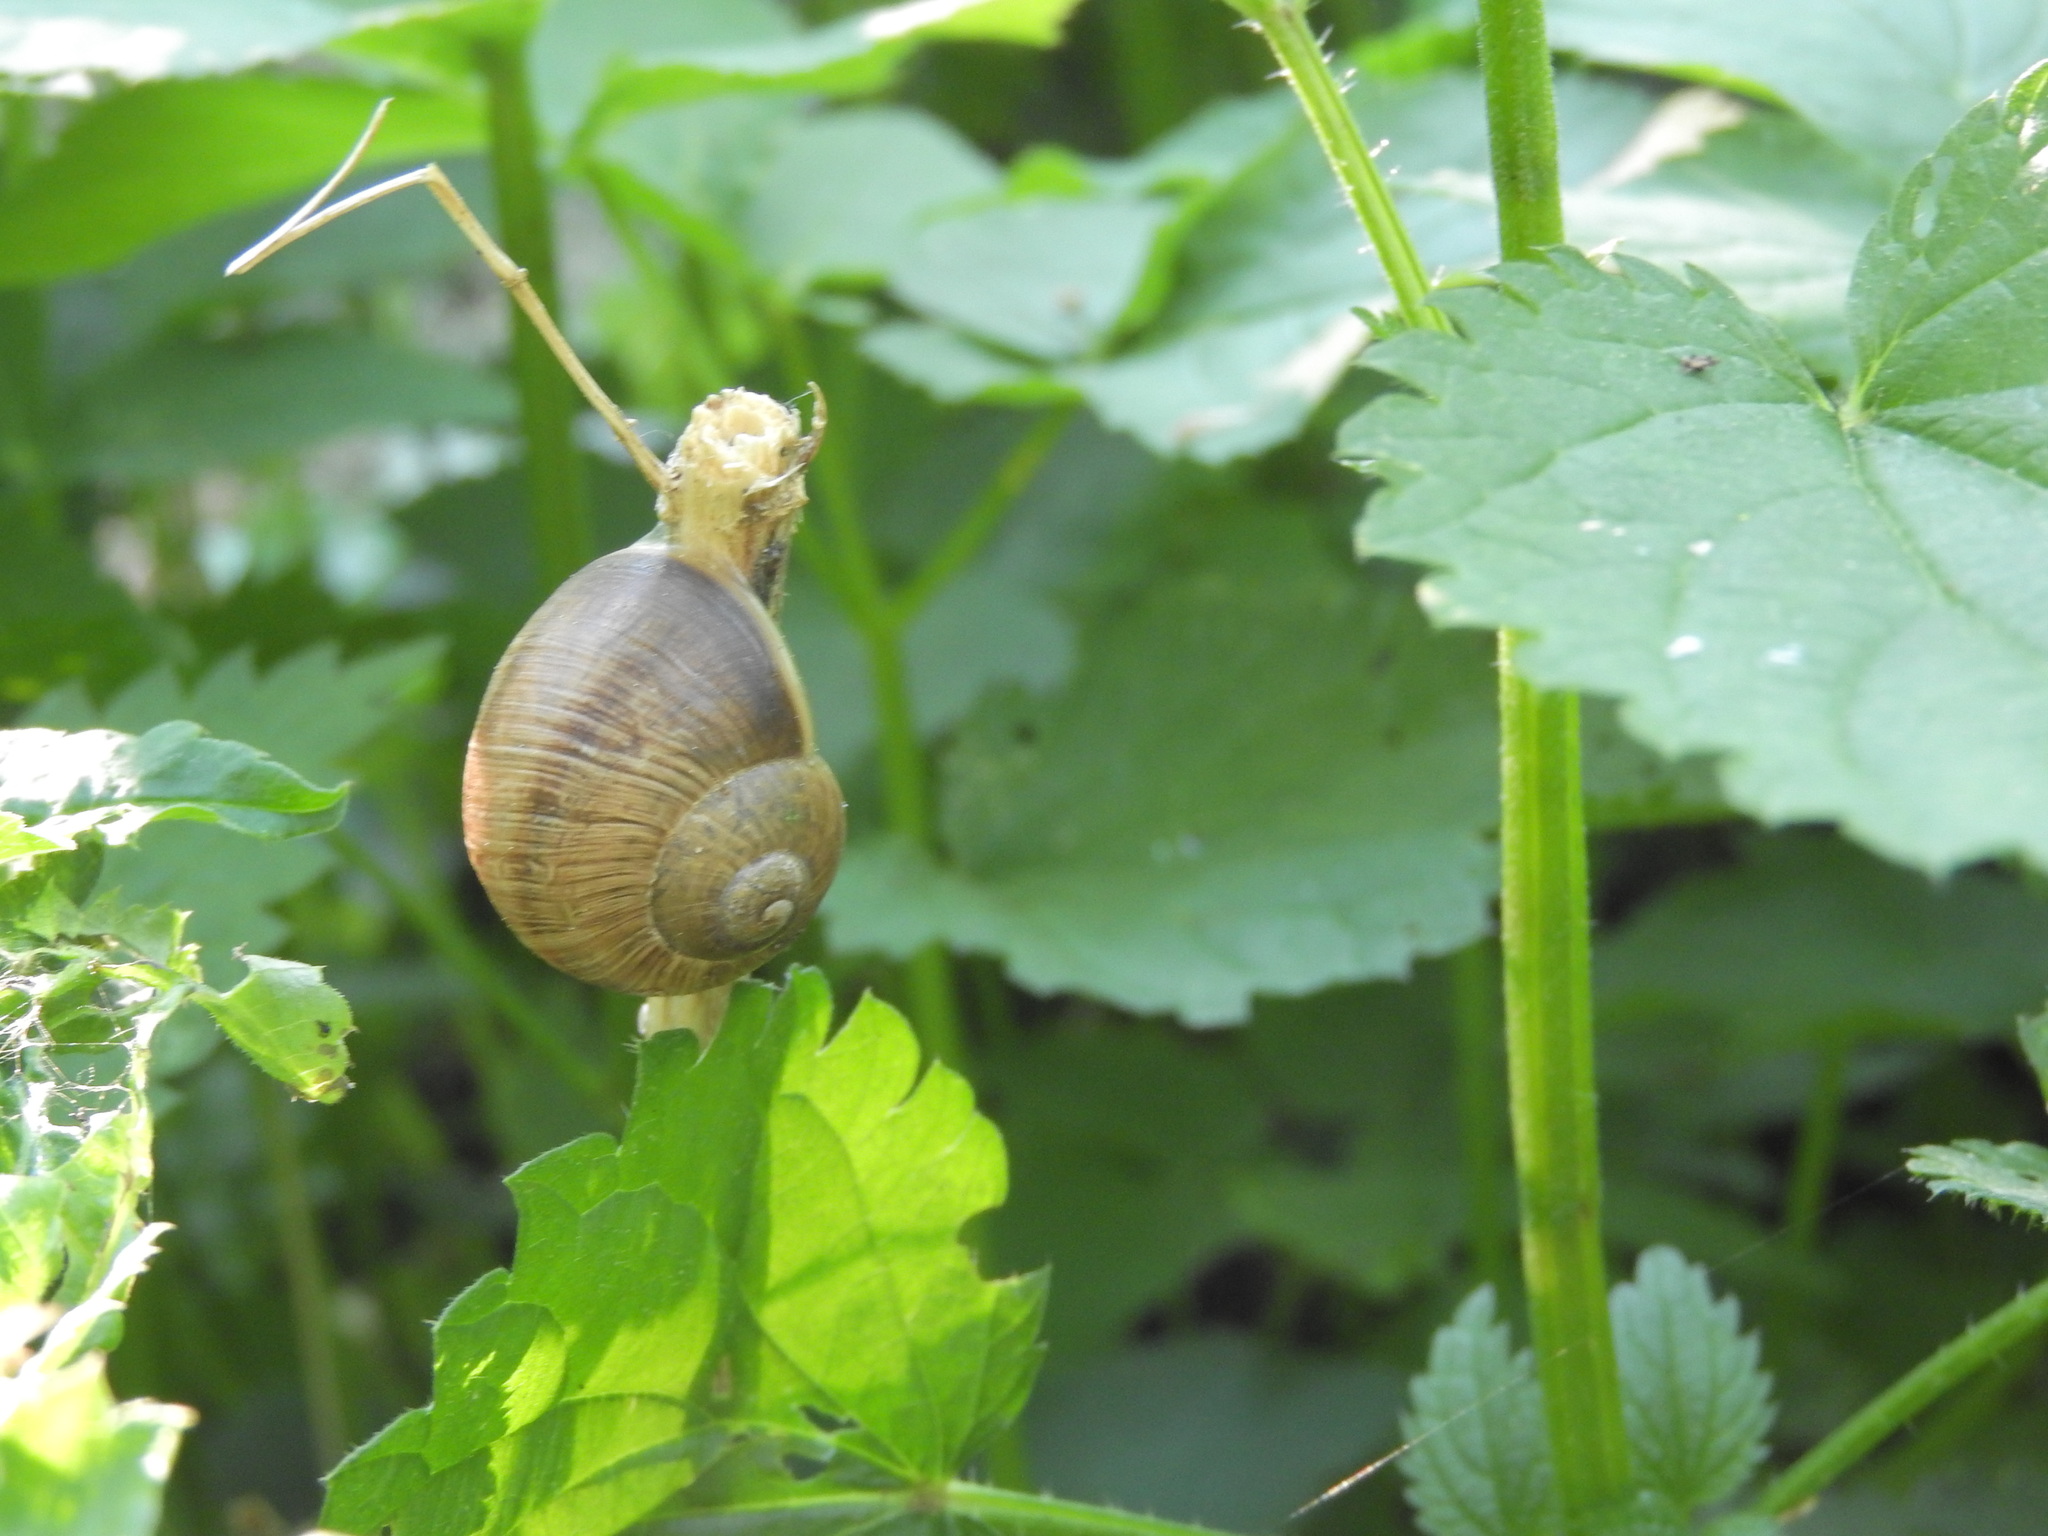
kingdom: Animalia
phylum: Mollusca
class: Gastropoda
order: Stylommatophora
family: Helicidae
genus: Helix
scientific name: Helix pomatia
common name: Roman snail
